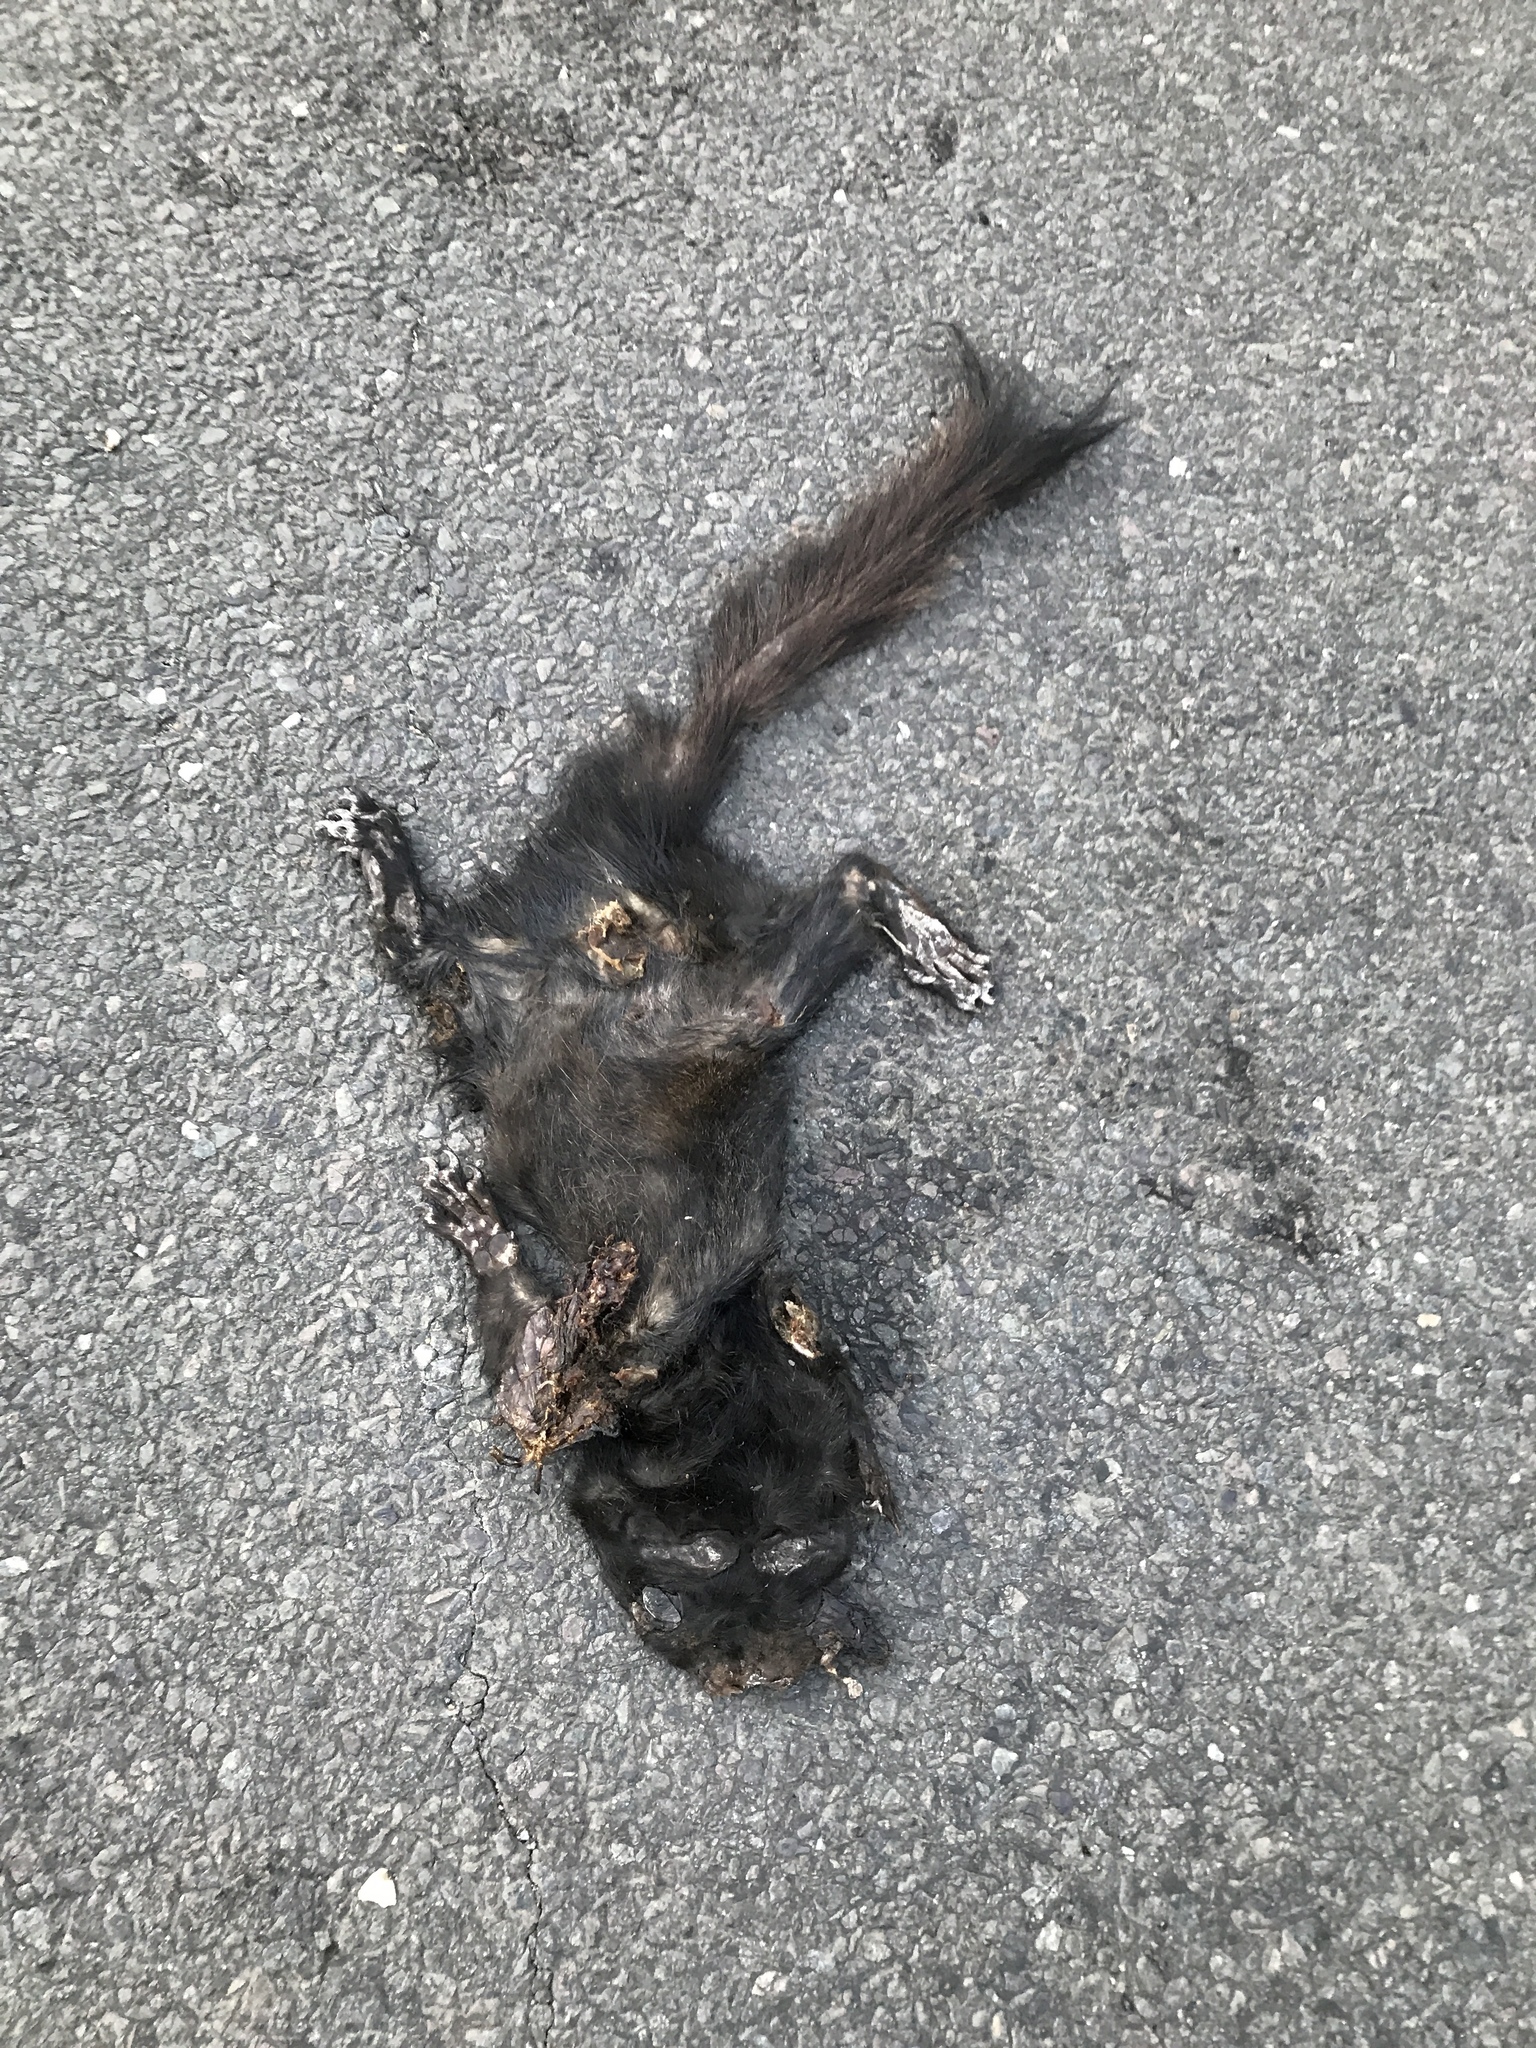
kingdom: Animalia
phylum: Chordata
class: Mammalia
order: Rodentia
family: Sciuridae
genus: Sciurus
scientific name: Sciurus carolinensis
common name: Eastern gray squirrel
